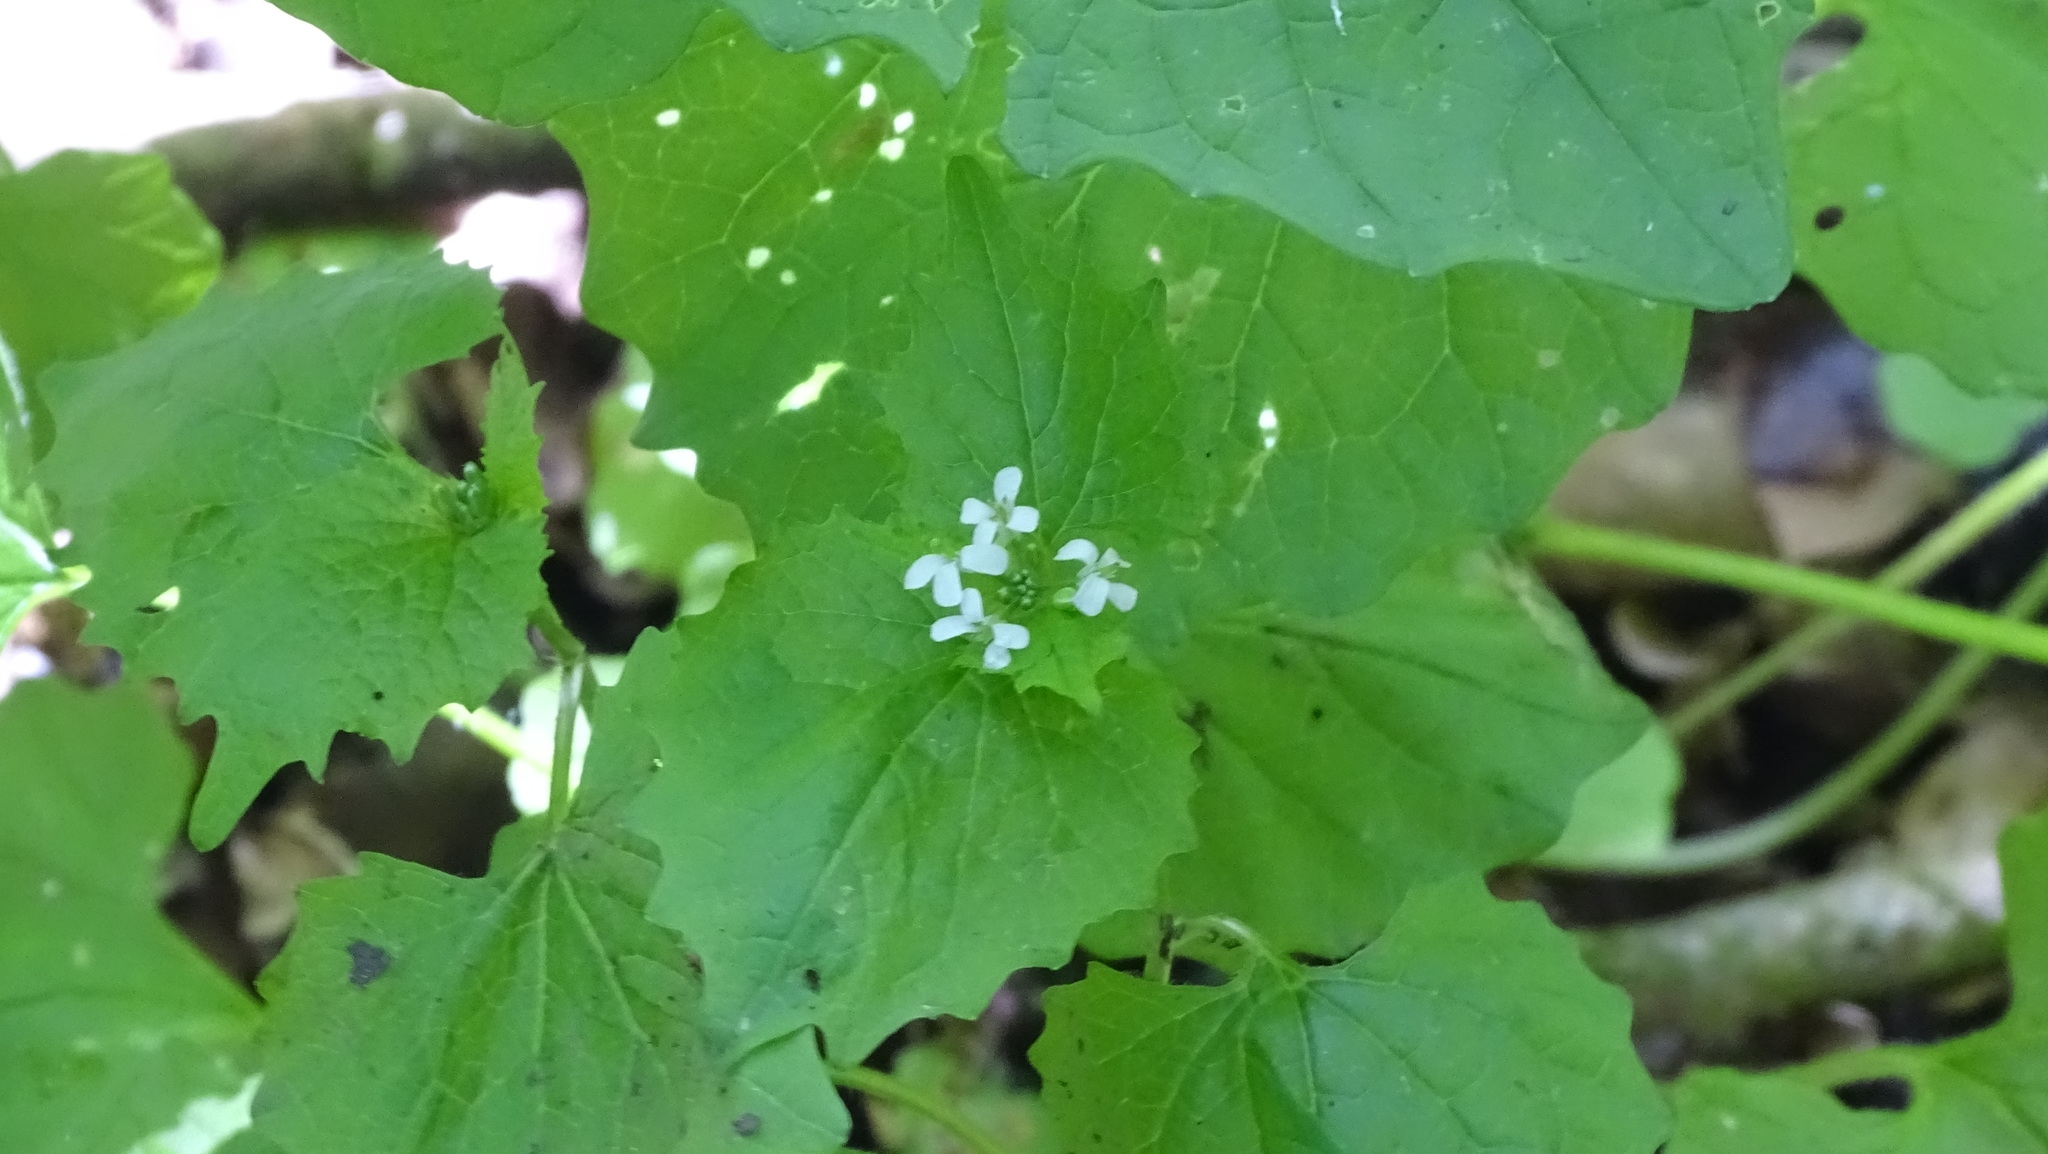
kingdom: Plantae
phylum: Tracheophyta
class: Magnoliopsida
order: Brassicales
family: Brassicaceae
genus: Alliaria
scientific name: Alliaria petiolata
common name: Garlic mustard
